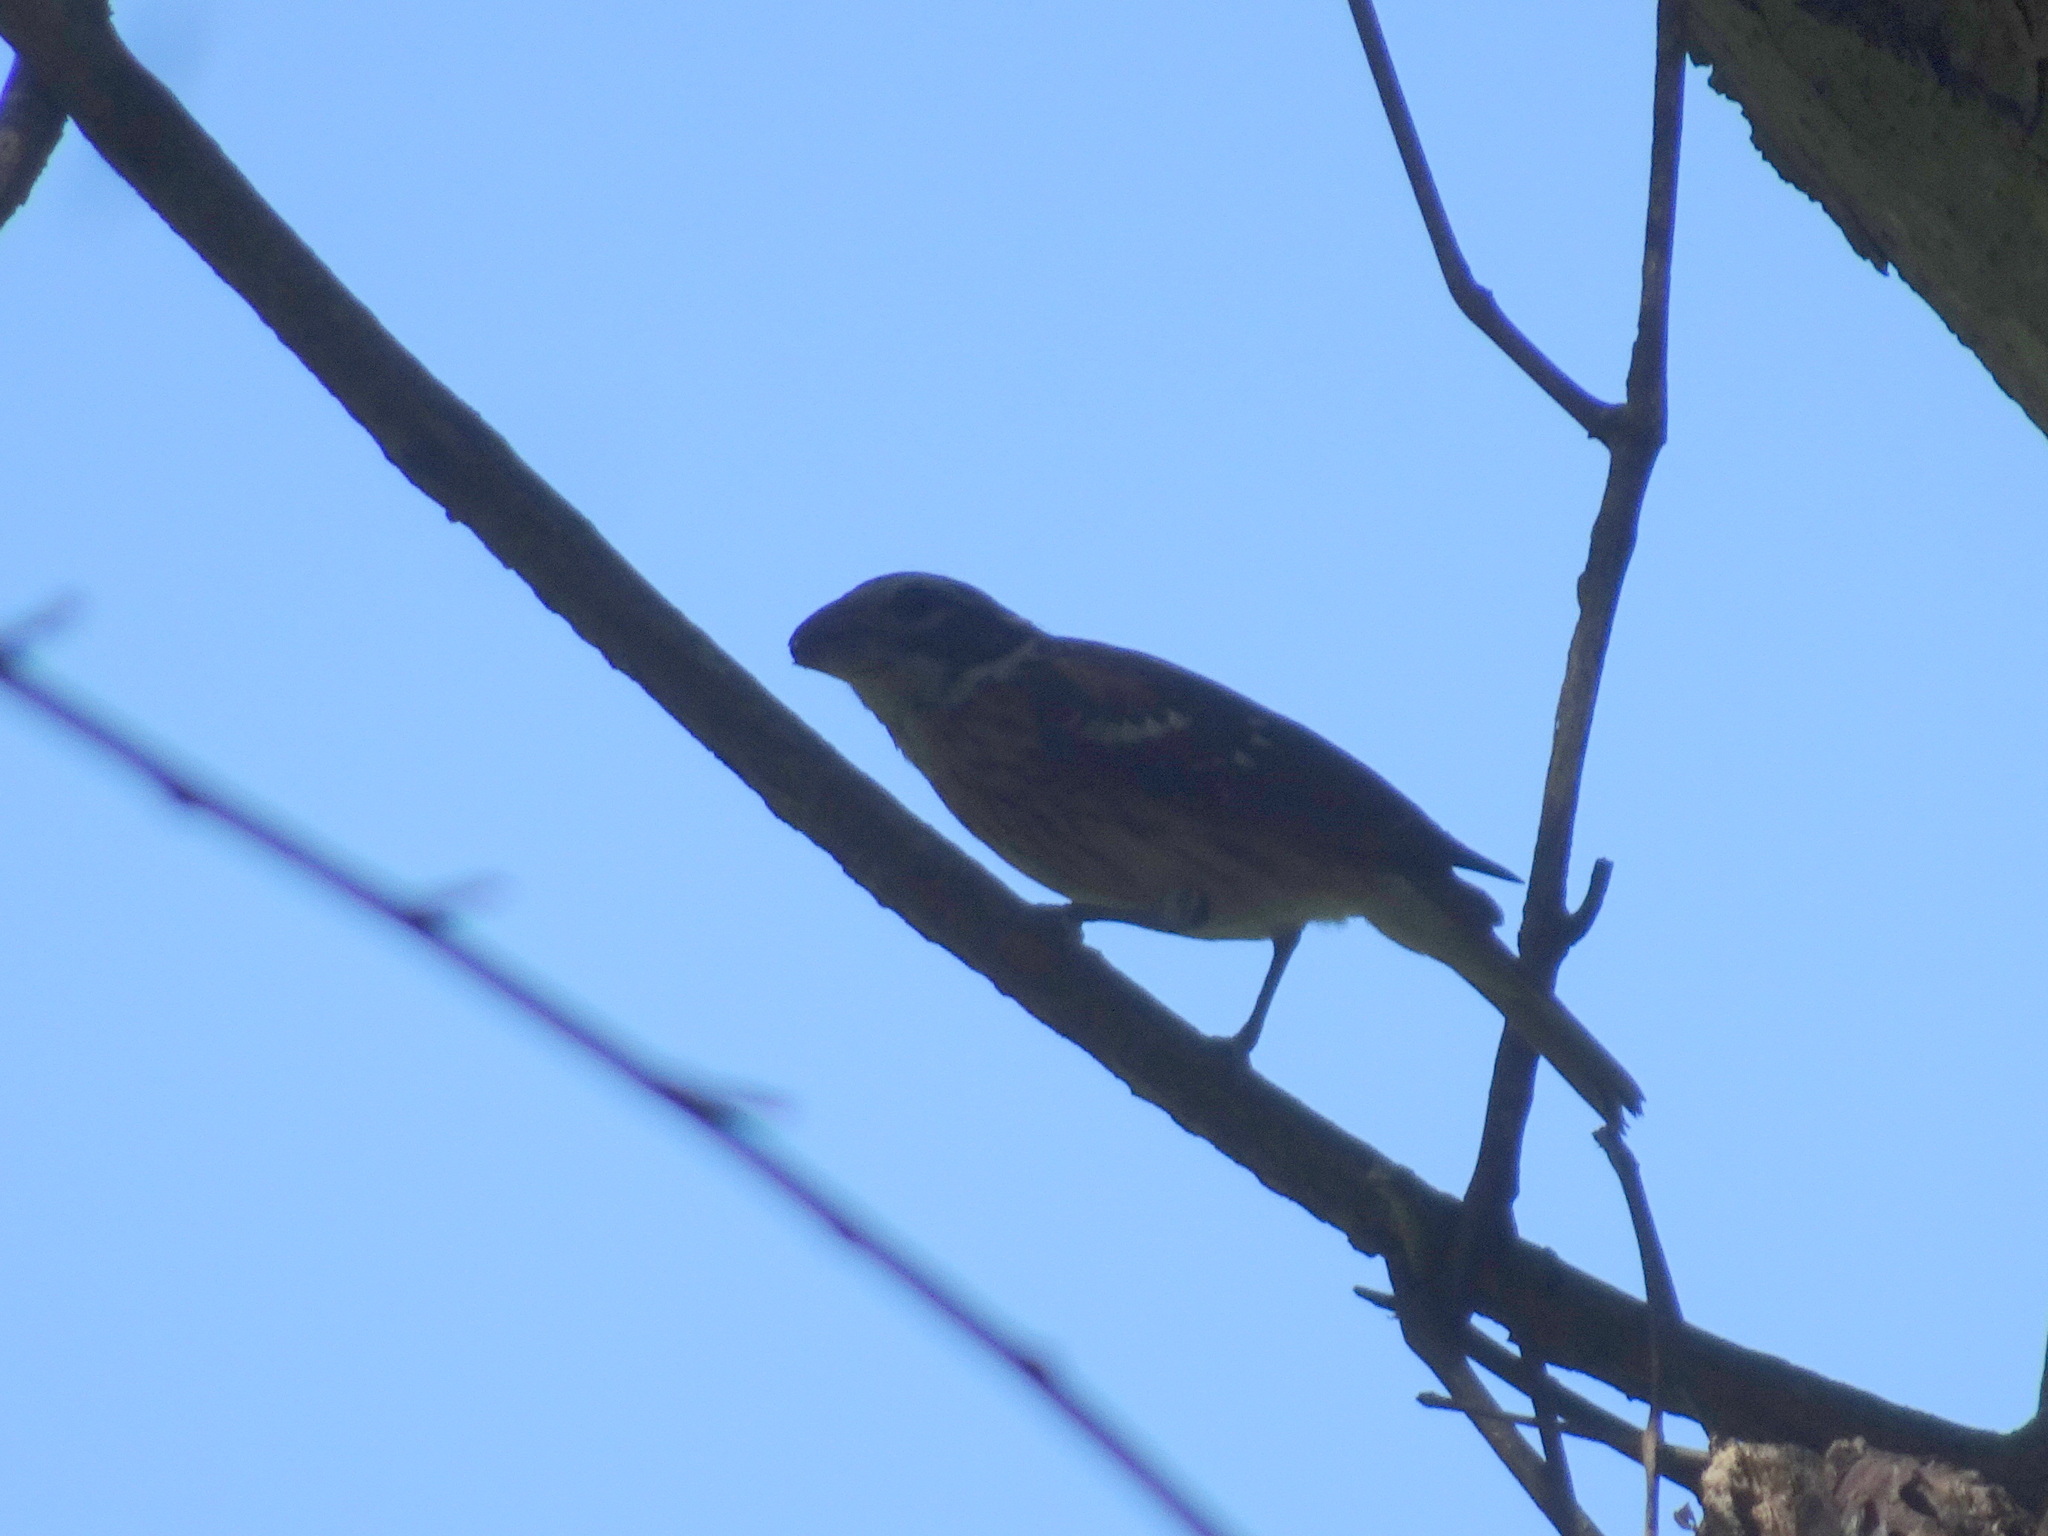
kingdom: Animalia
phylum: Chordata
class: Aves
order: Passeriformes
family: Cardinalidae
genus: Pheucticus
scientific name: Pheucticus ludovicianus
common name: Rose-breasted grosbeak
